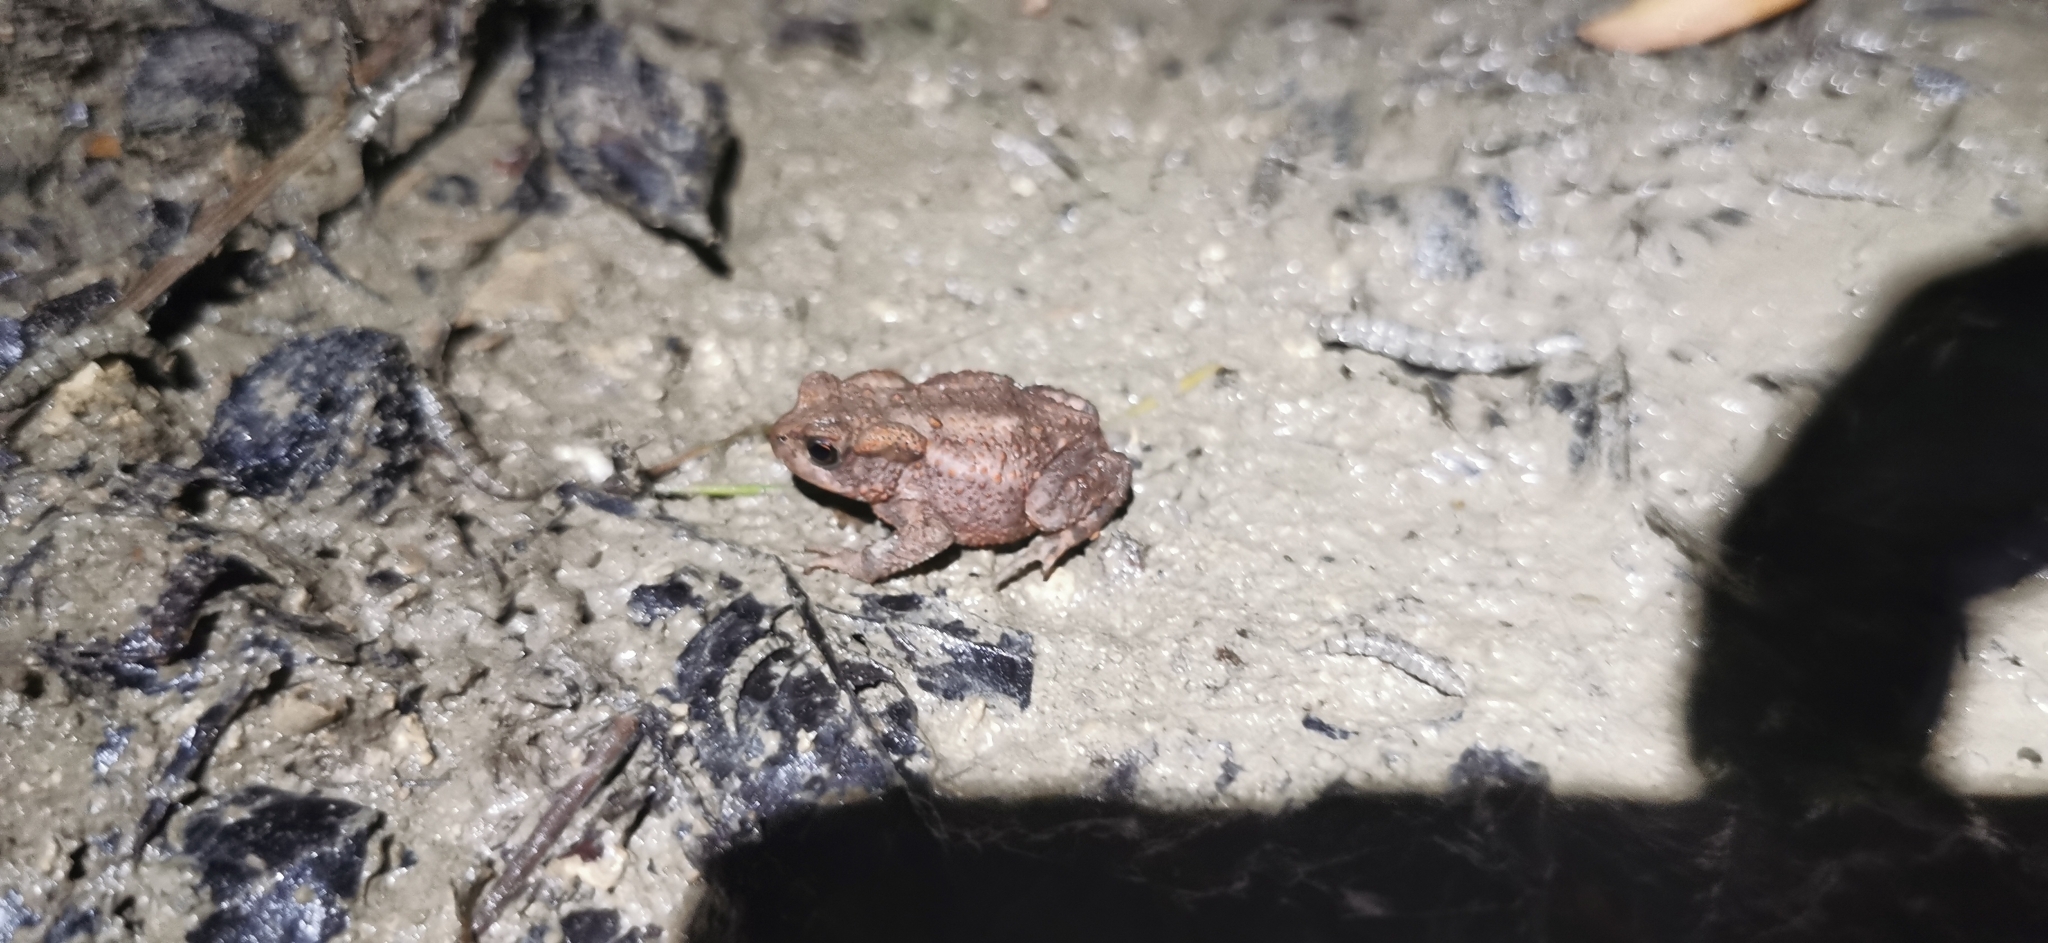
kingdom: Animalia
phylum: Chordata
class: Amphibia
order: Anura
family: Bufonidae
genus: Bufo
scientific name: Bufo bufo
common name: Common toad
